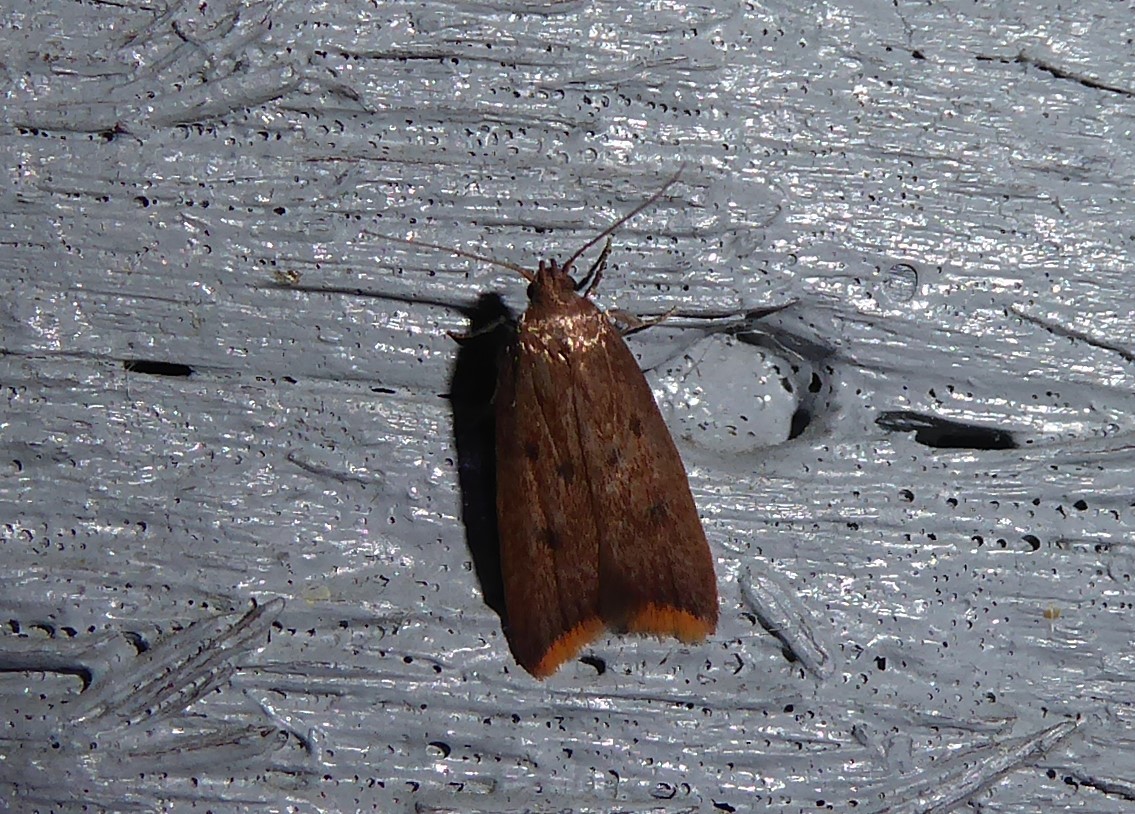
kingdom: Animalia
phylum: Arthropoda
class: Insecta
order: Lepidoptera
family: Oecophoridae
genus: Tachystola
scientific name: Tachystola acroxantha
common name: Ruddy streak
